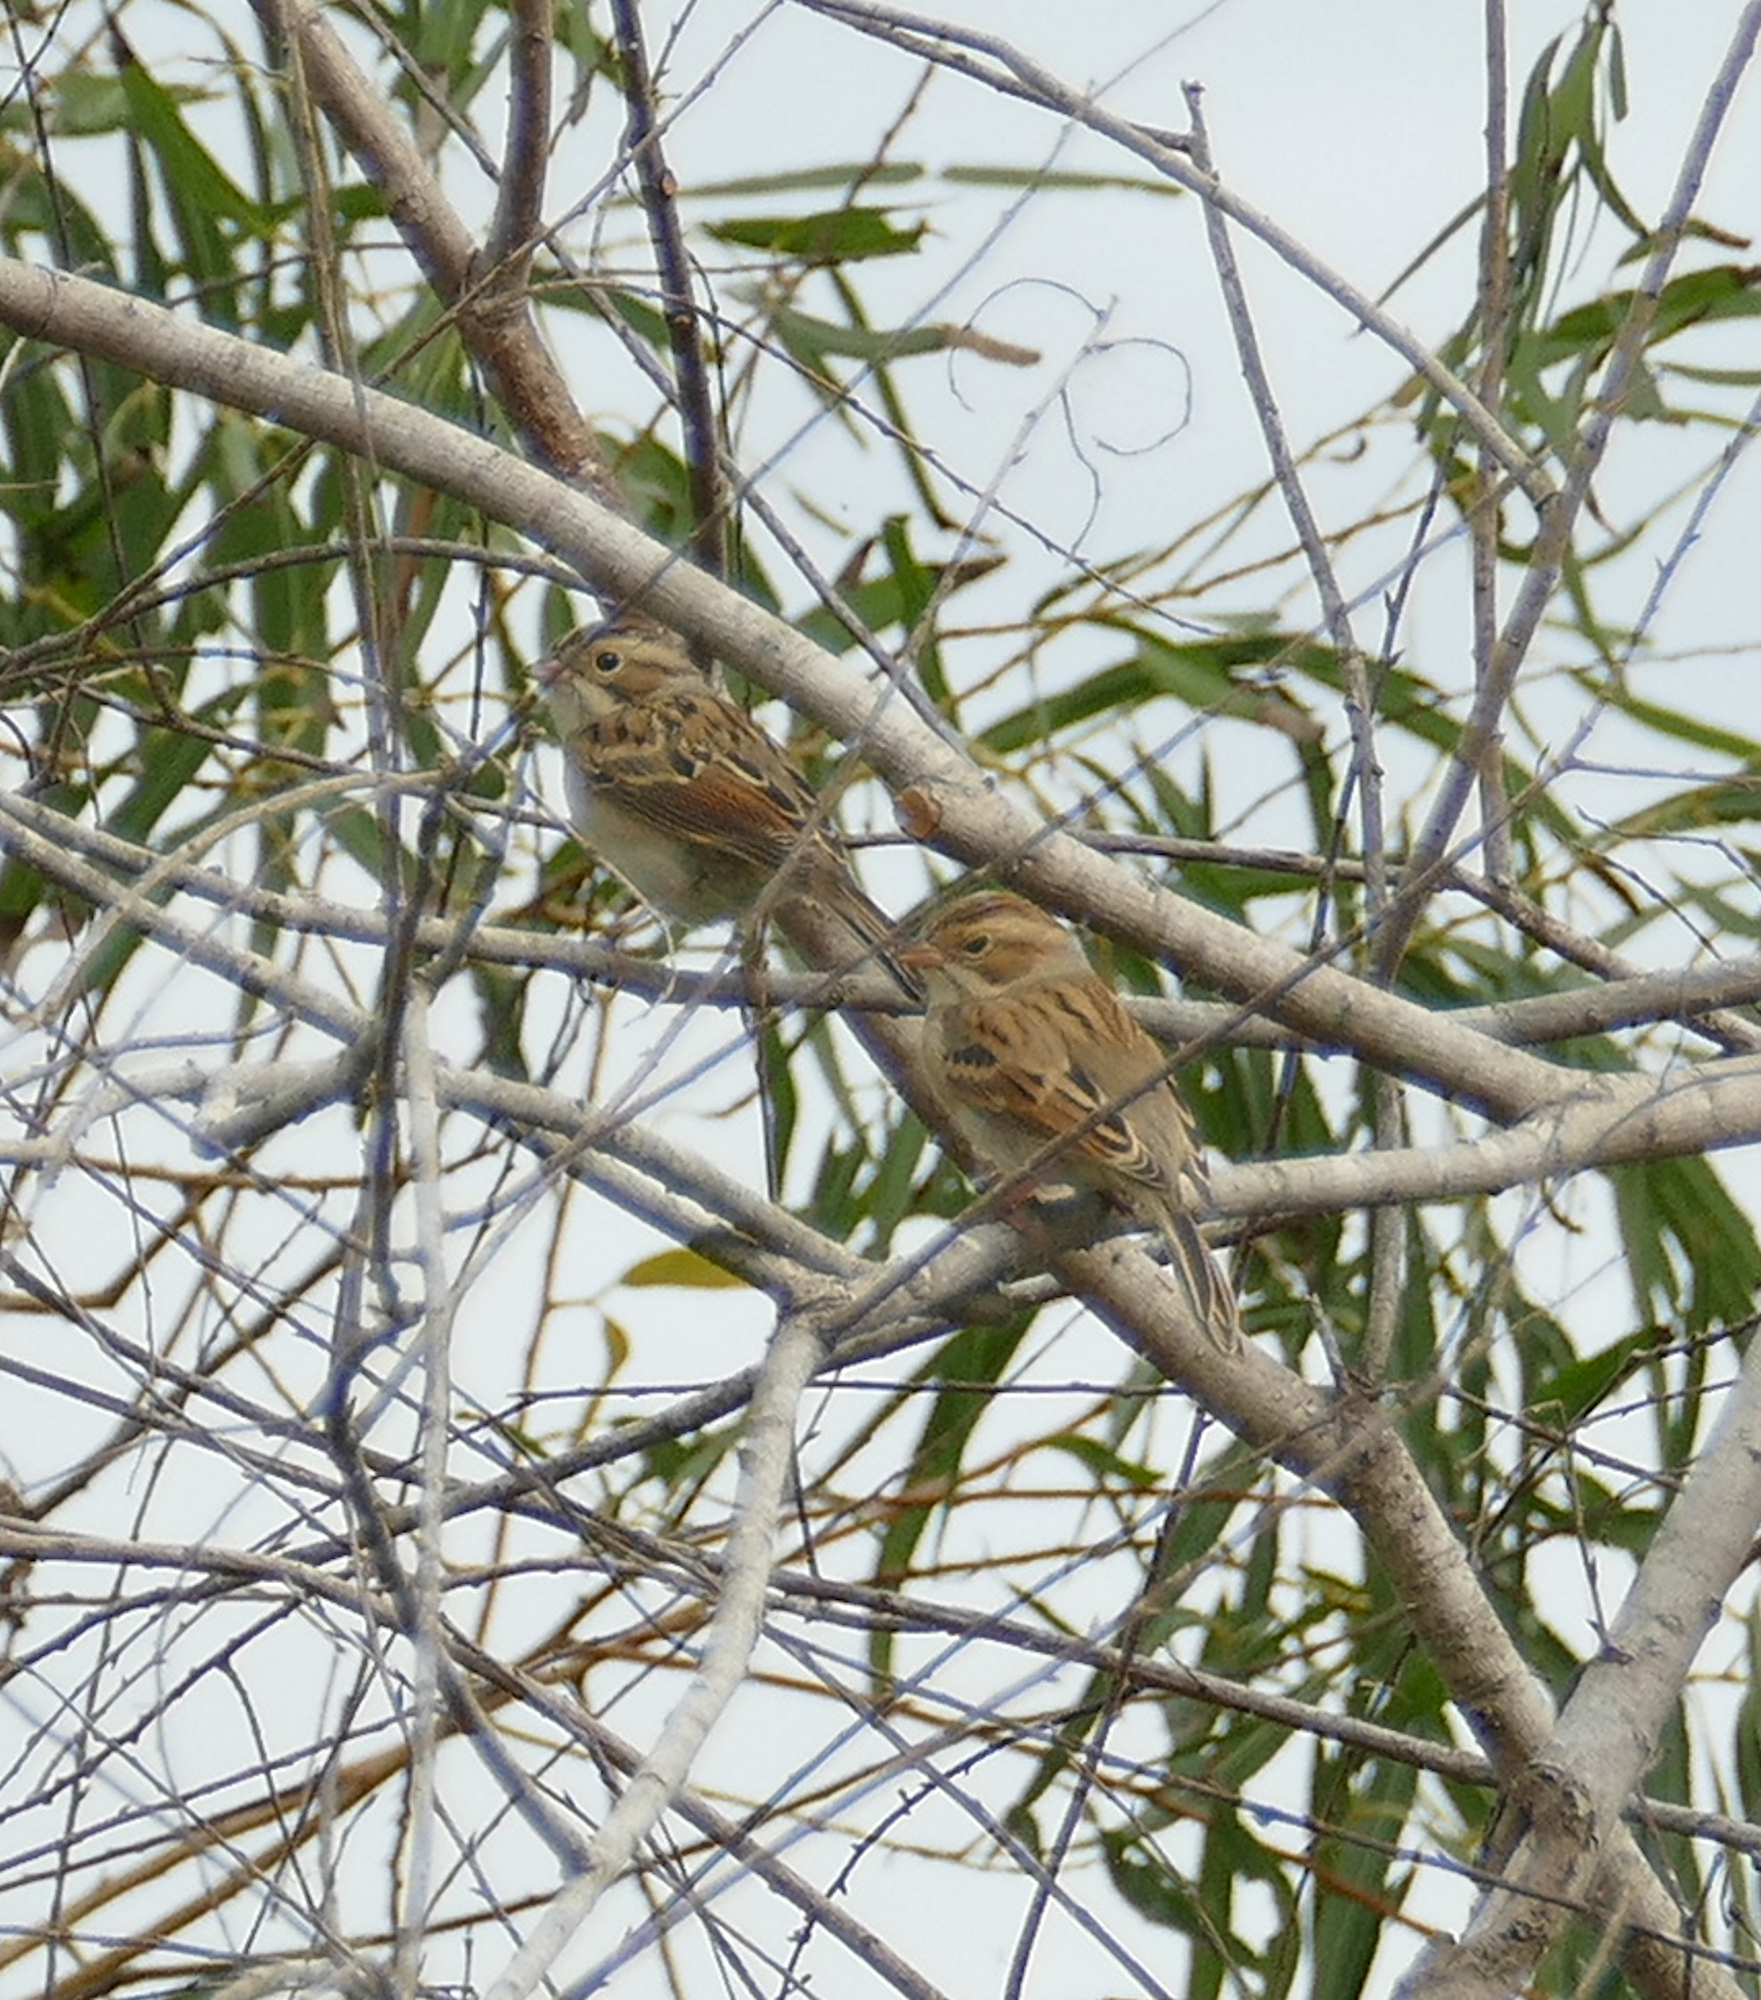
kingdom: Animalia
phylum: Chordata
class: Aves
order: Passeriformes
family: Passerellidae
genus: Spizella
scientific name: Spizella pallida
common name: Clay-colored sparrow
